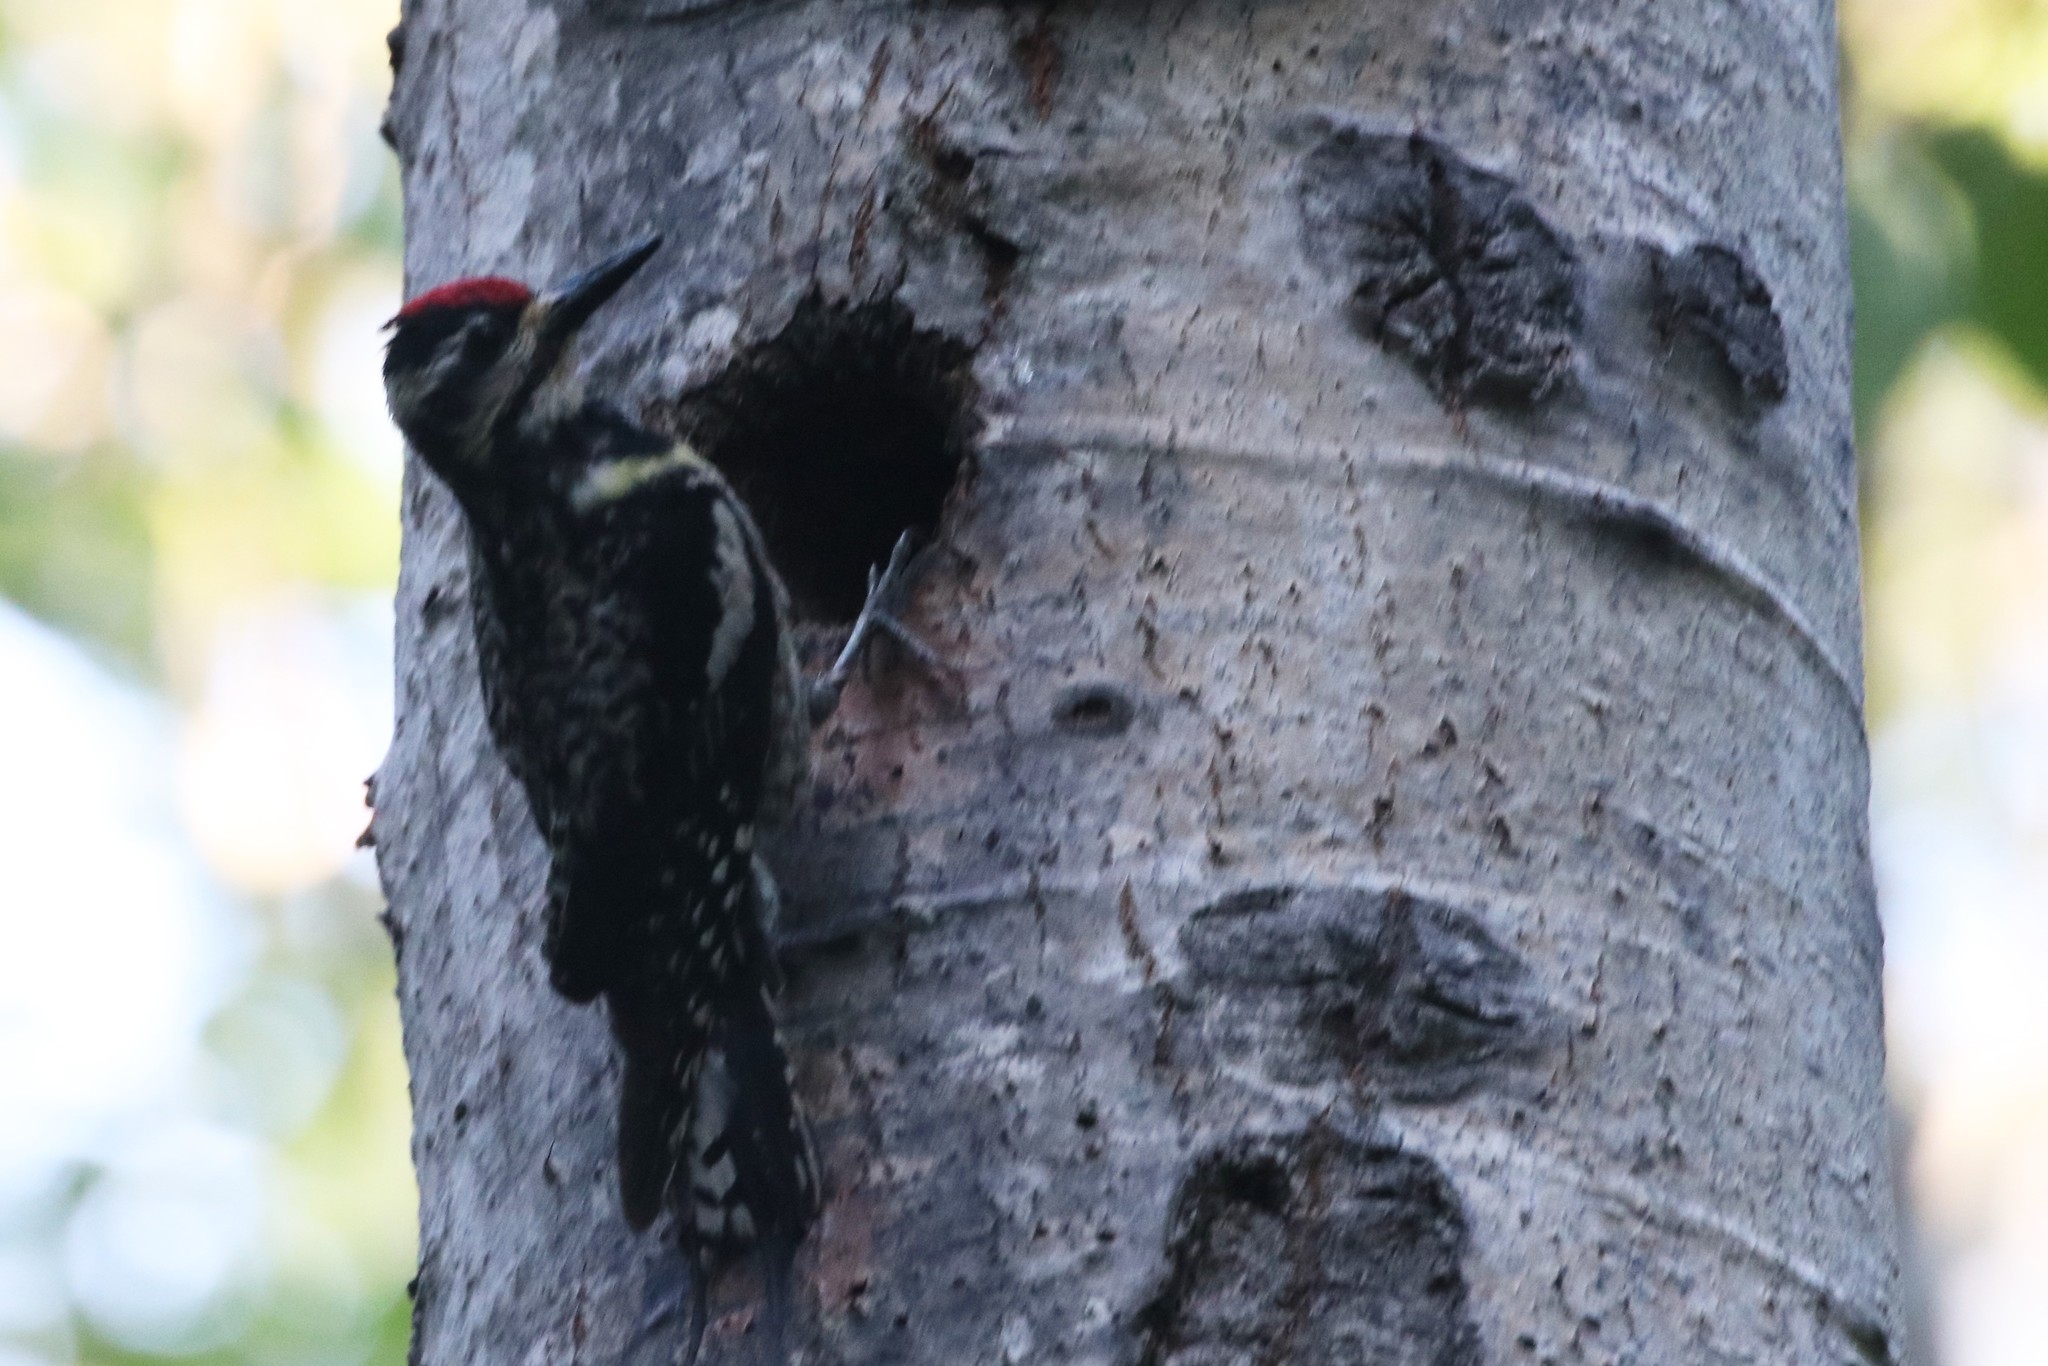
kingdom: Animalia
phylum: Chordata
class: Aves
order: Piciformes
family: Picidae
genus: Sphyrapicus
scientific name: Sphyrapicus varius
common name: Yellow-bellied sapsucker
